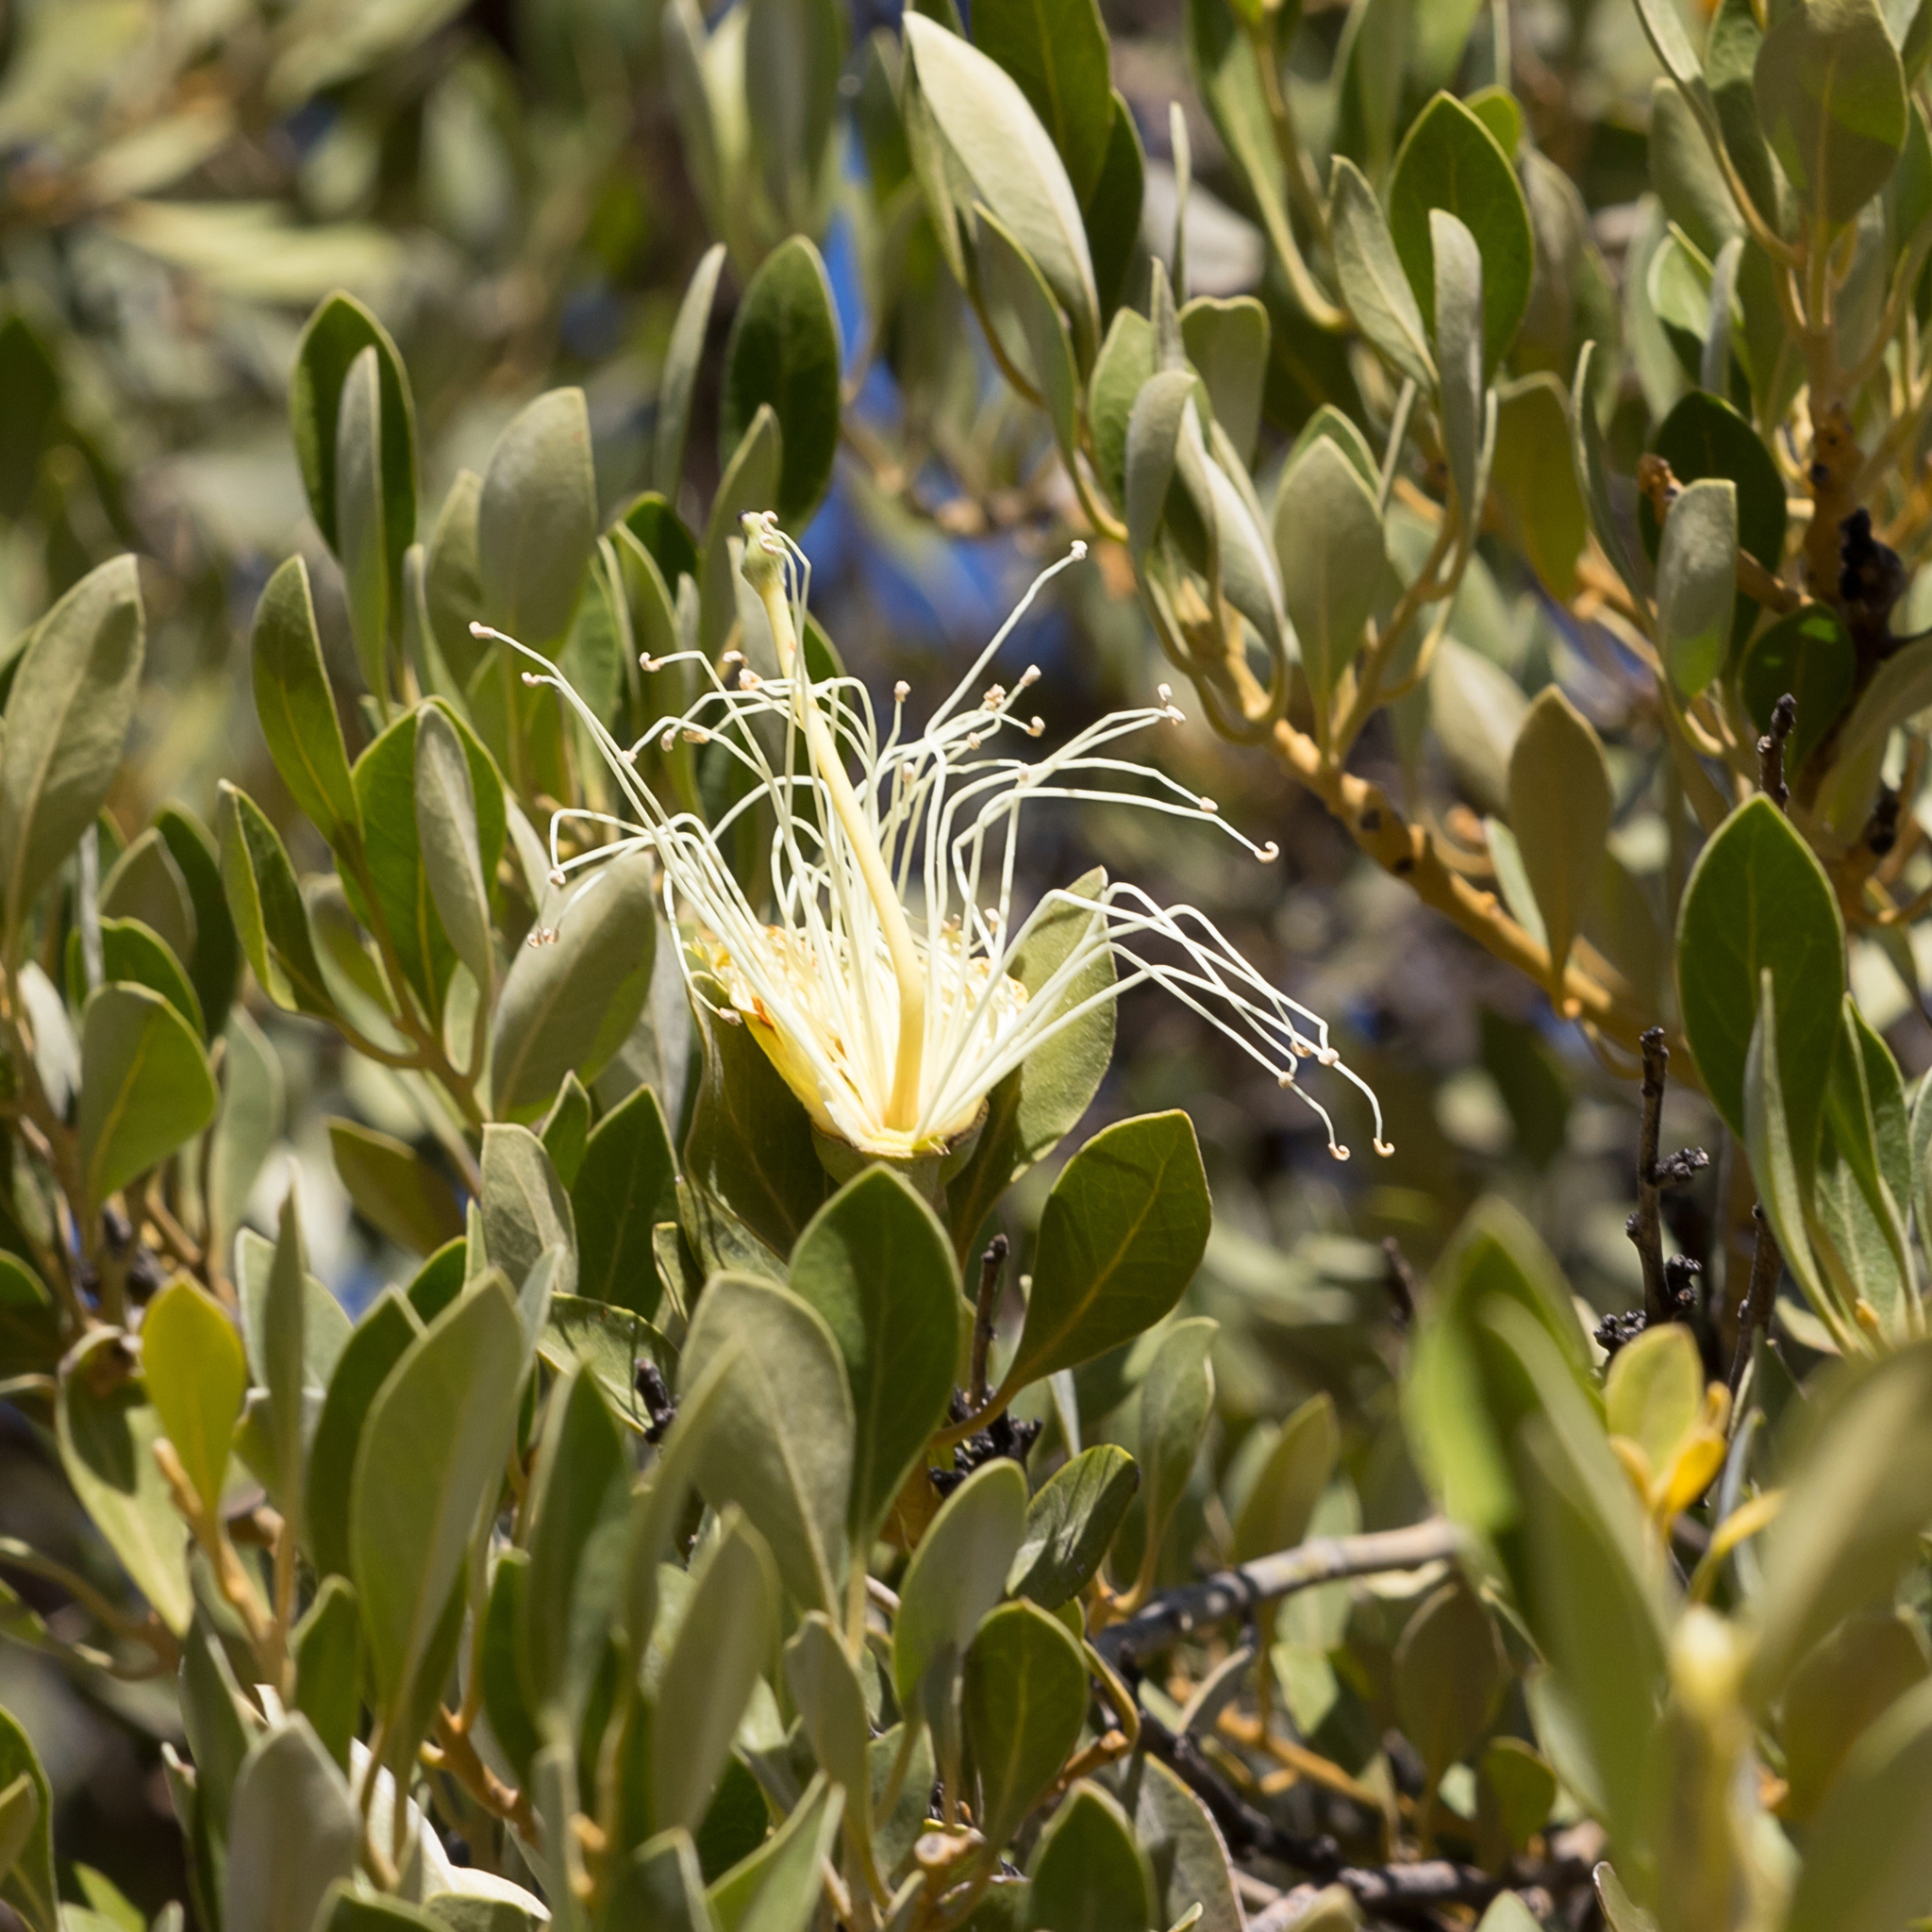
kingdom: Plantae
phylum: Tracheophyta
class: Magnoliopsida
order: Brassicales
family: Capparaceae
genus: Capparis
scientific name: Capparis mitchellii
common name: Desert caper
